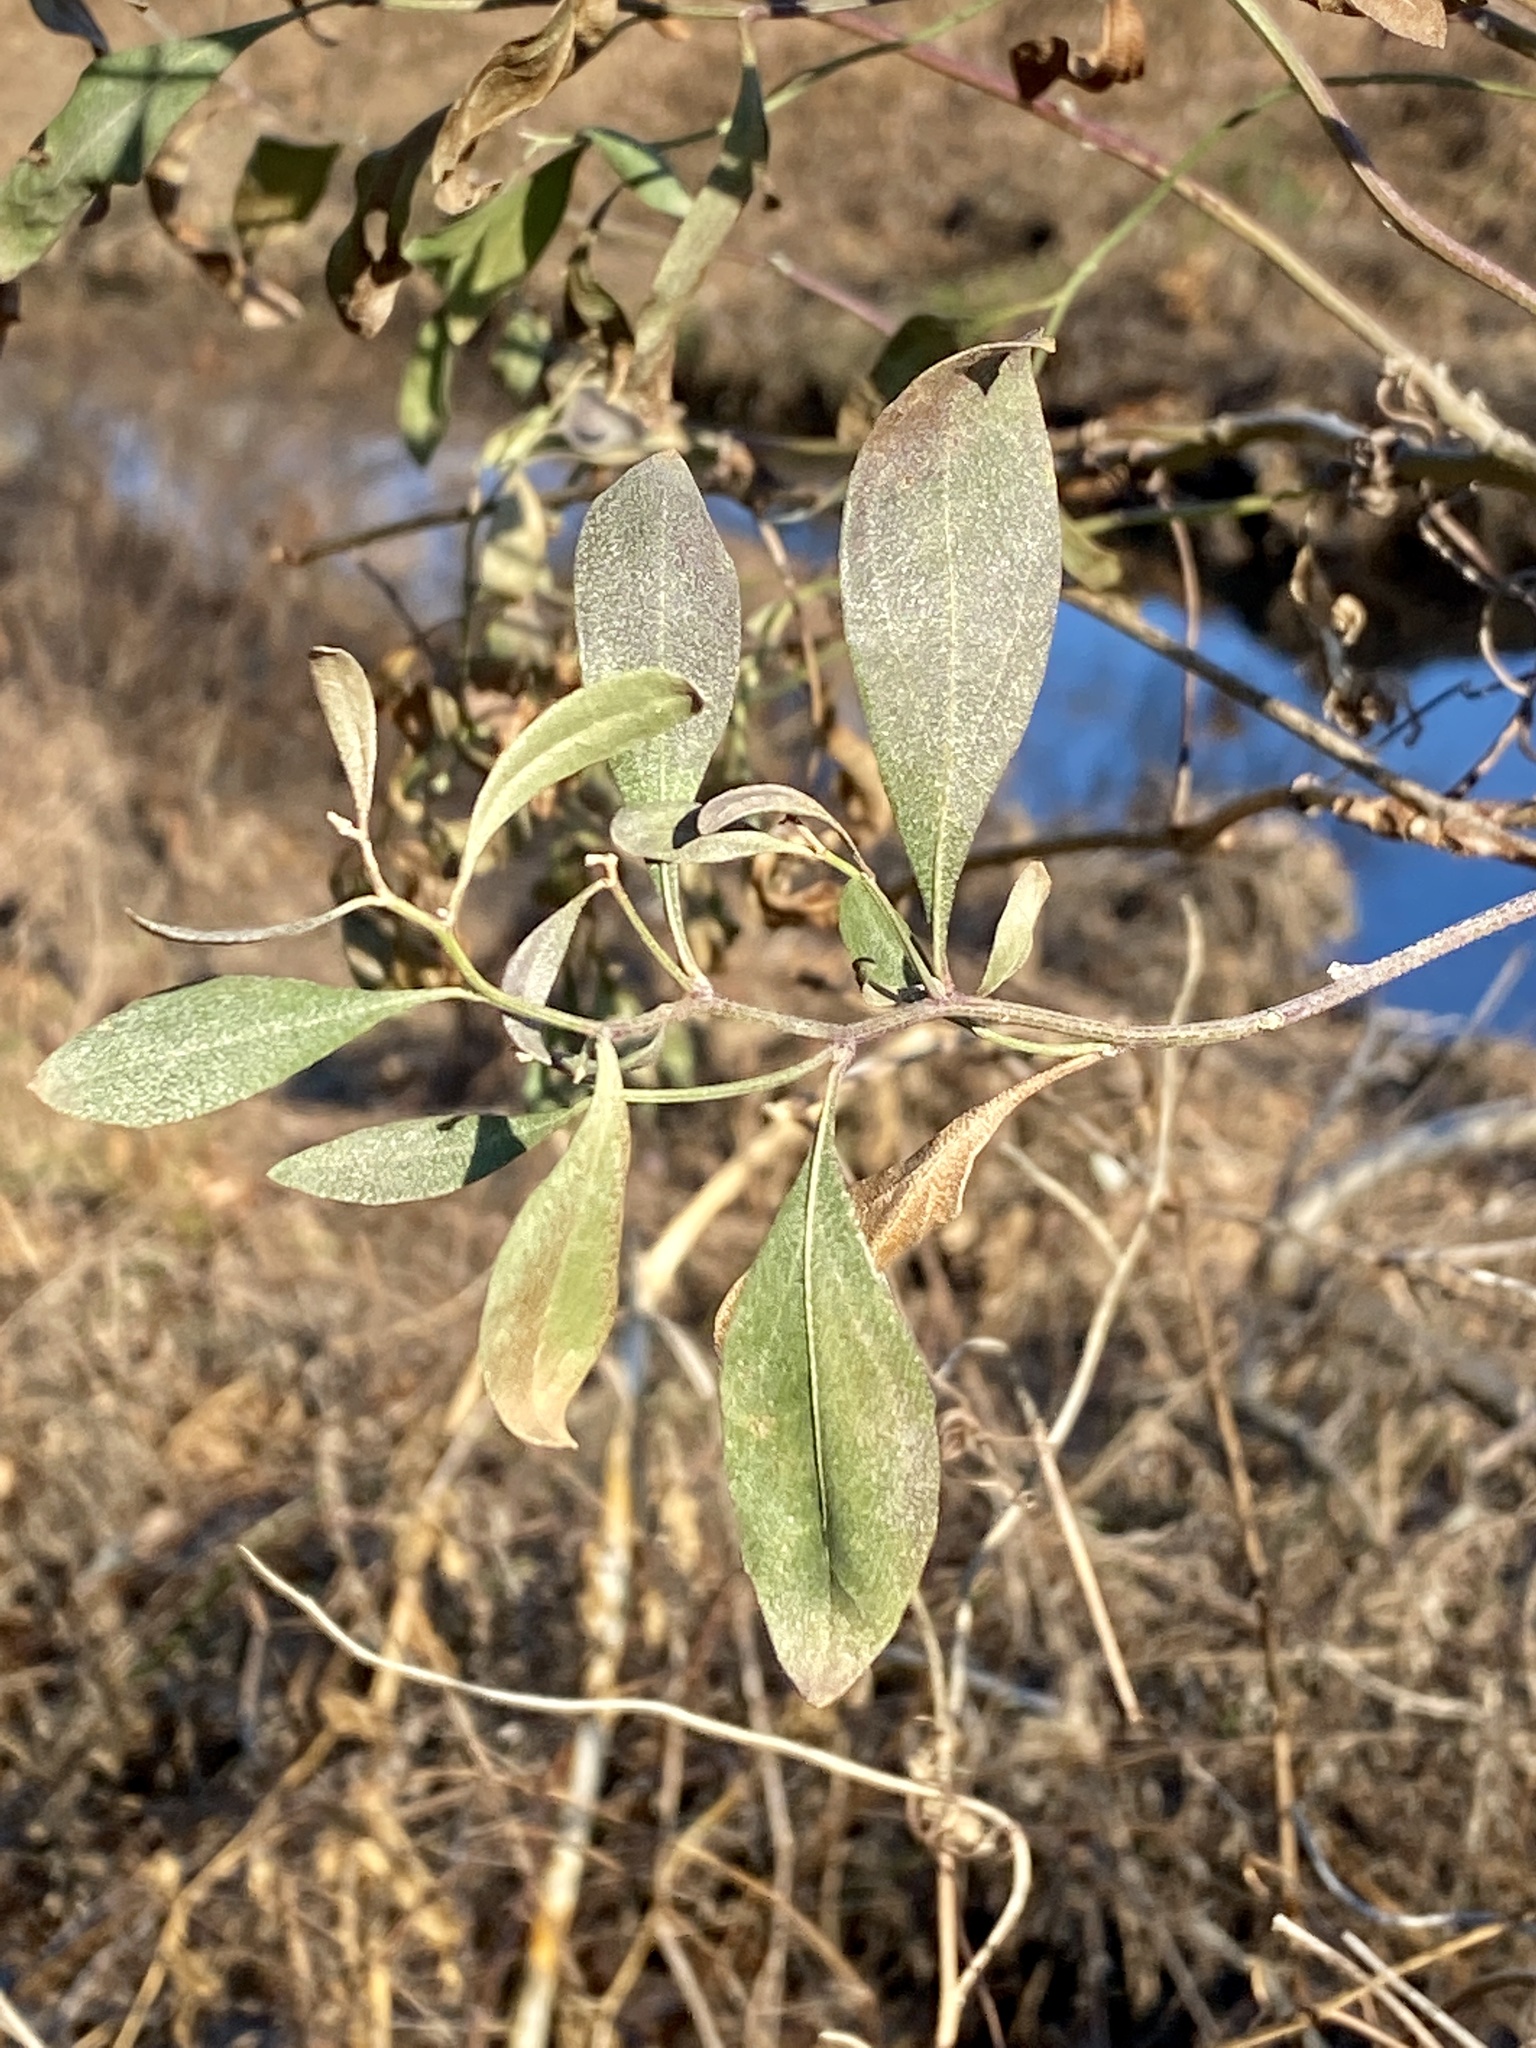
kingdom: Plantae
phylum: Tracheophyta
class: Magnoliopsida
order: Asterales
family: Asteraceae
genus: Baccharis
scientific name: Baccharis halimifolia
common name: Eastern baccharis
